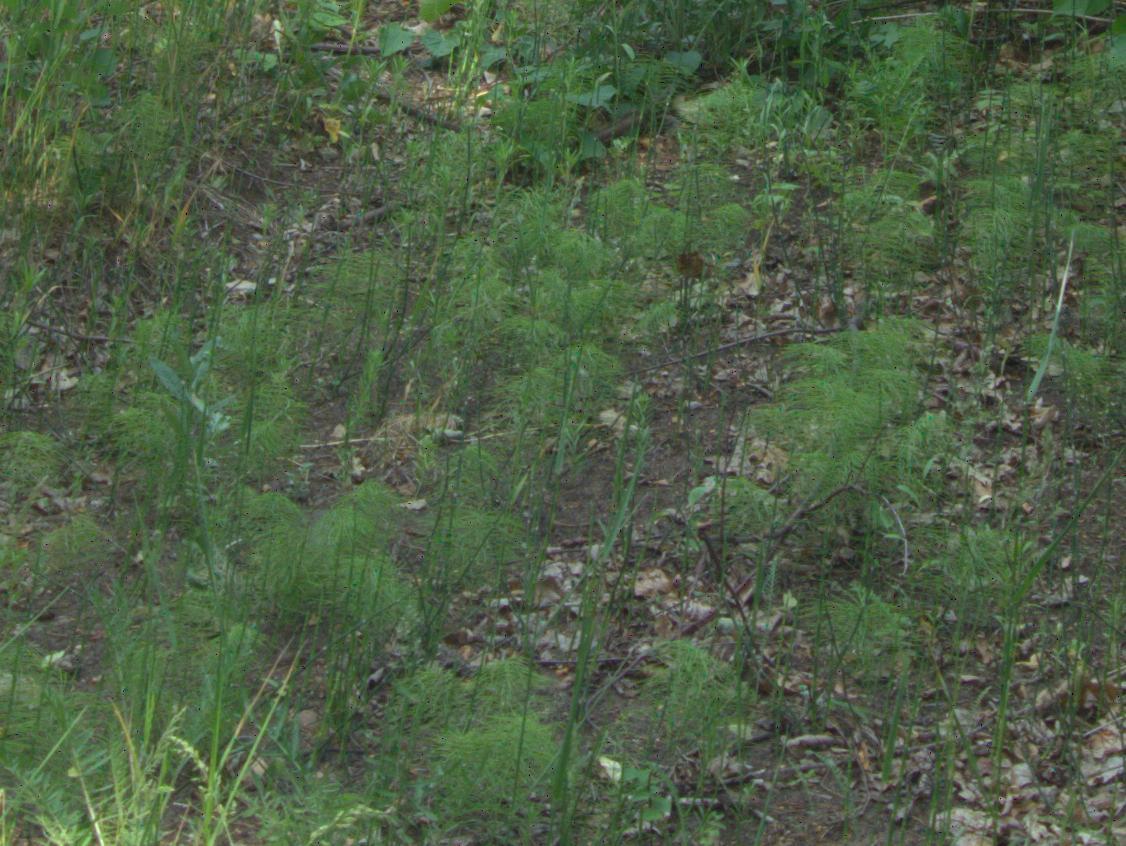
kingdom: Plantae
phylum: Tracheophyta
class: Polypodiopsida
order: Equisetales
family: Equisetaceae
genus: Equisetum
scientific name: Equisetum sylvaticum
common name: Wood horsetail
